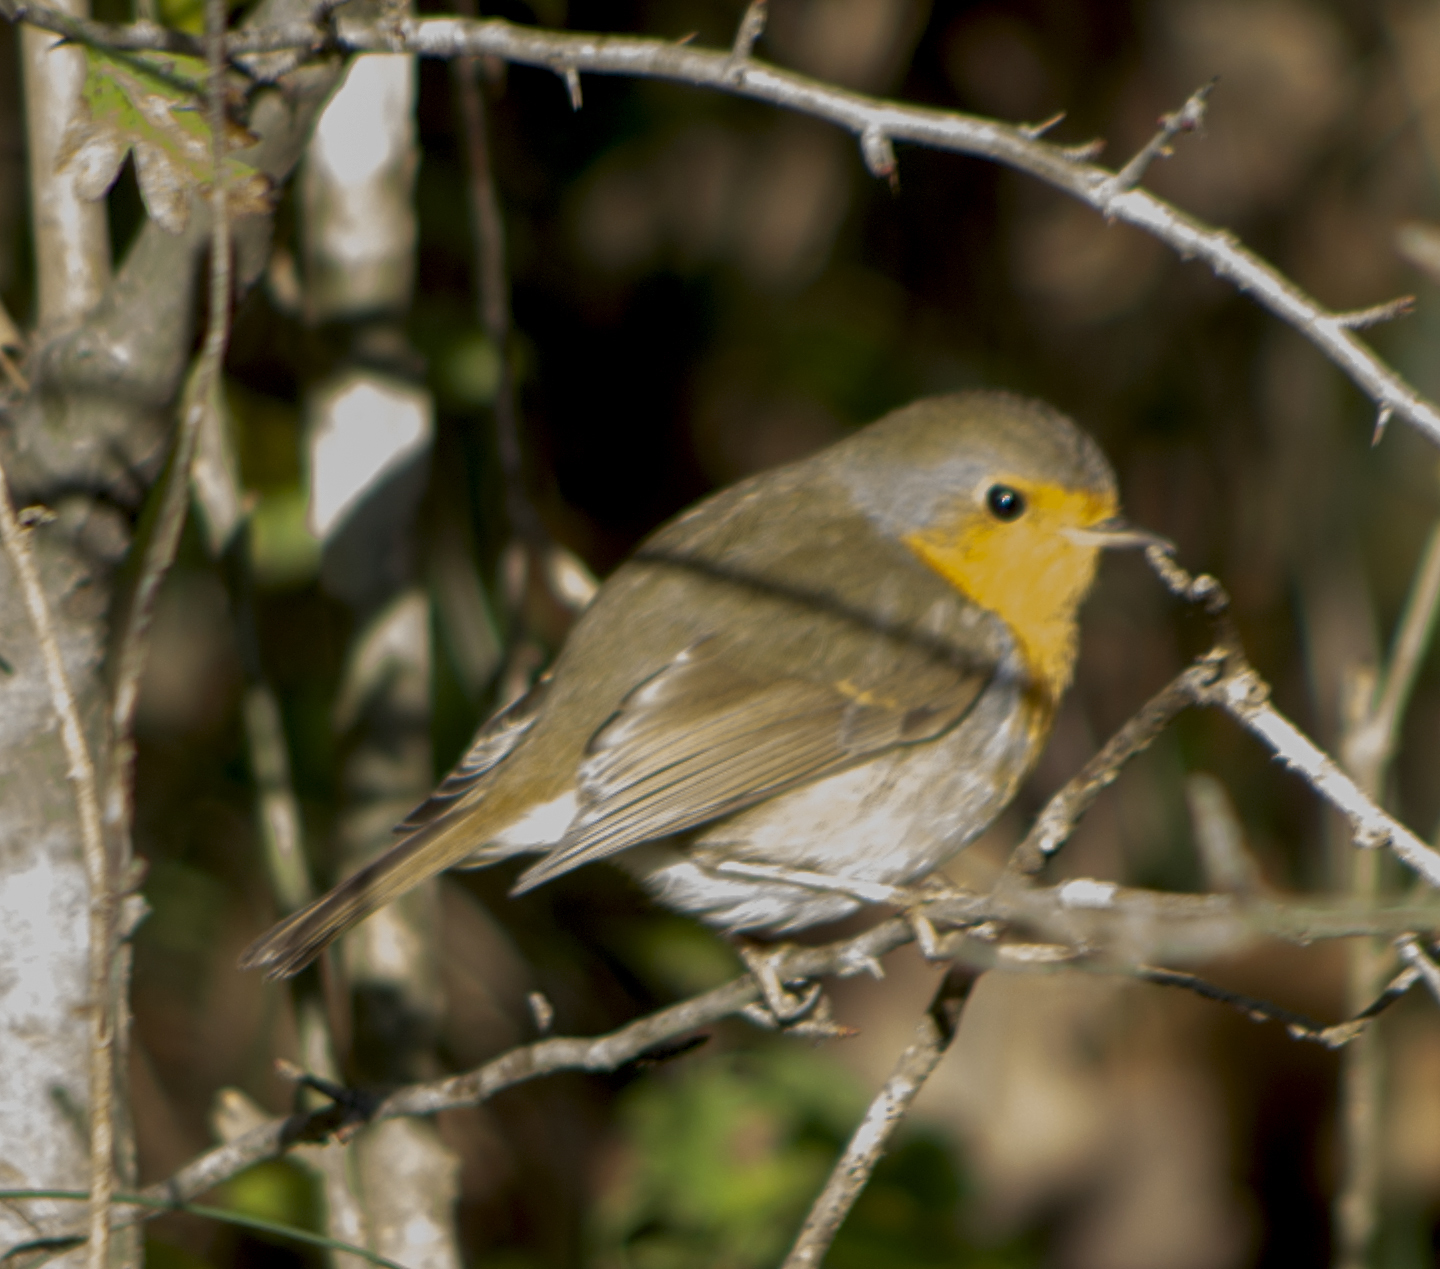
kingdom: Animalia
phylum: Chordata
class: Aves
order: Passeriformes
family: Muscicapidae
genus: Erithacus
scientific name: Erithacus rubecula
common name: European robin
